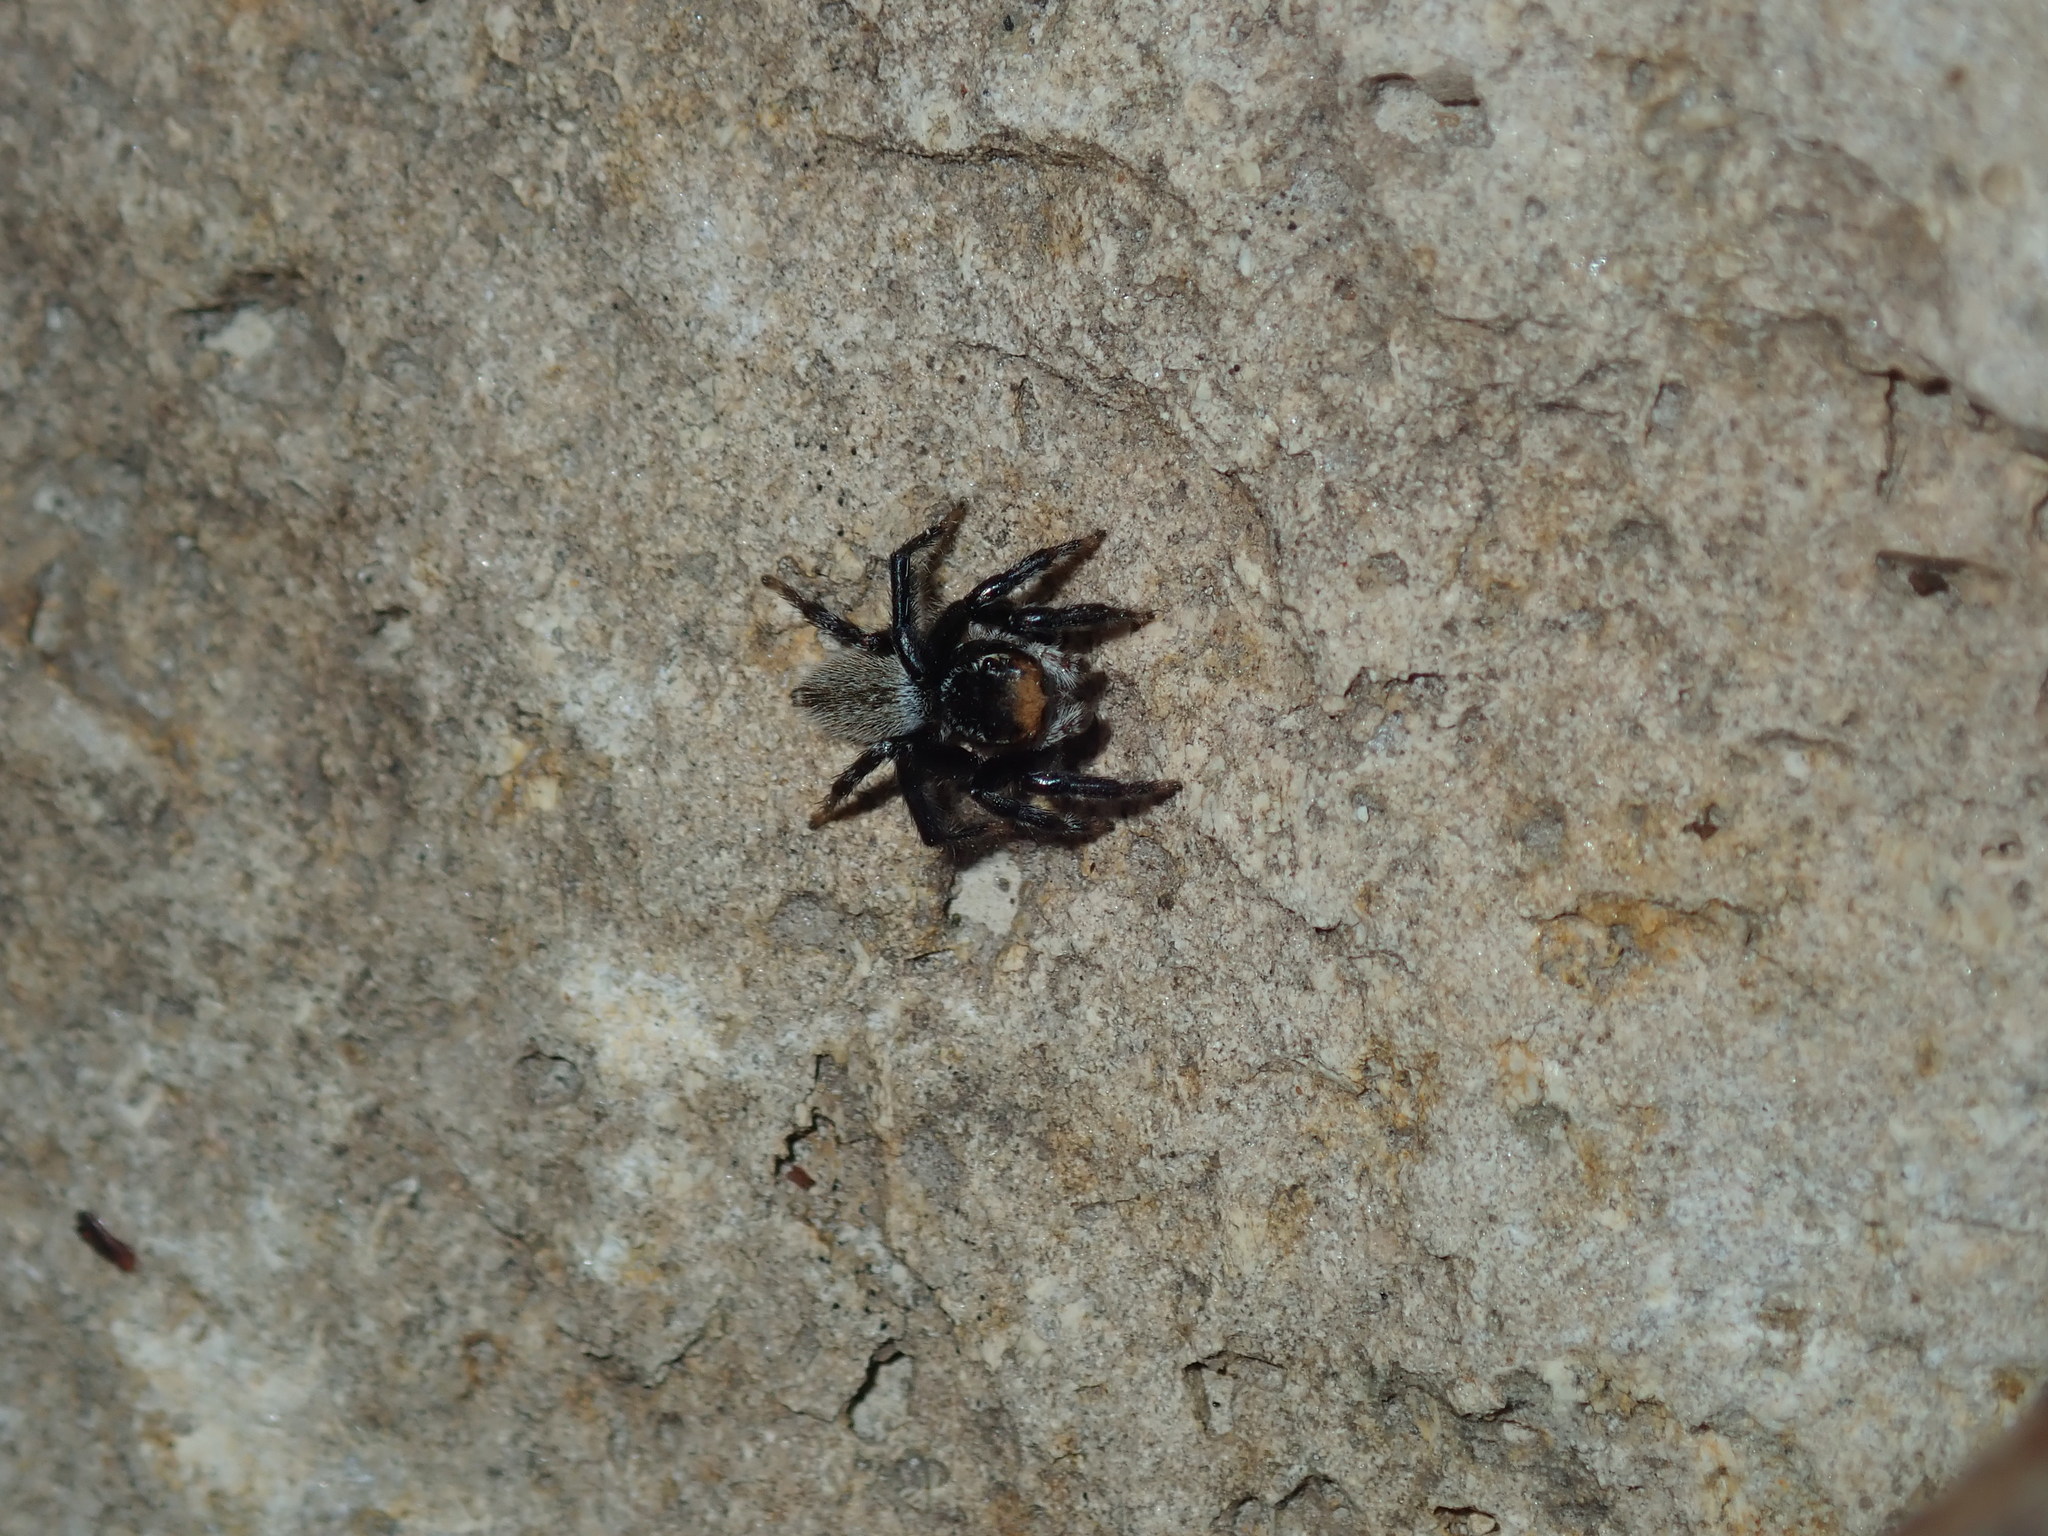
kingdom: Animalia
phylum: Arthropoda
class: Arachnida
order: Araneae
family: Salticidae
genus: Maratus
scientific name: Maratus griseus
